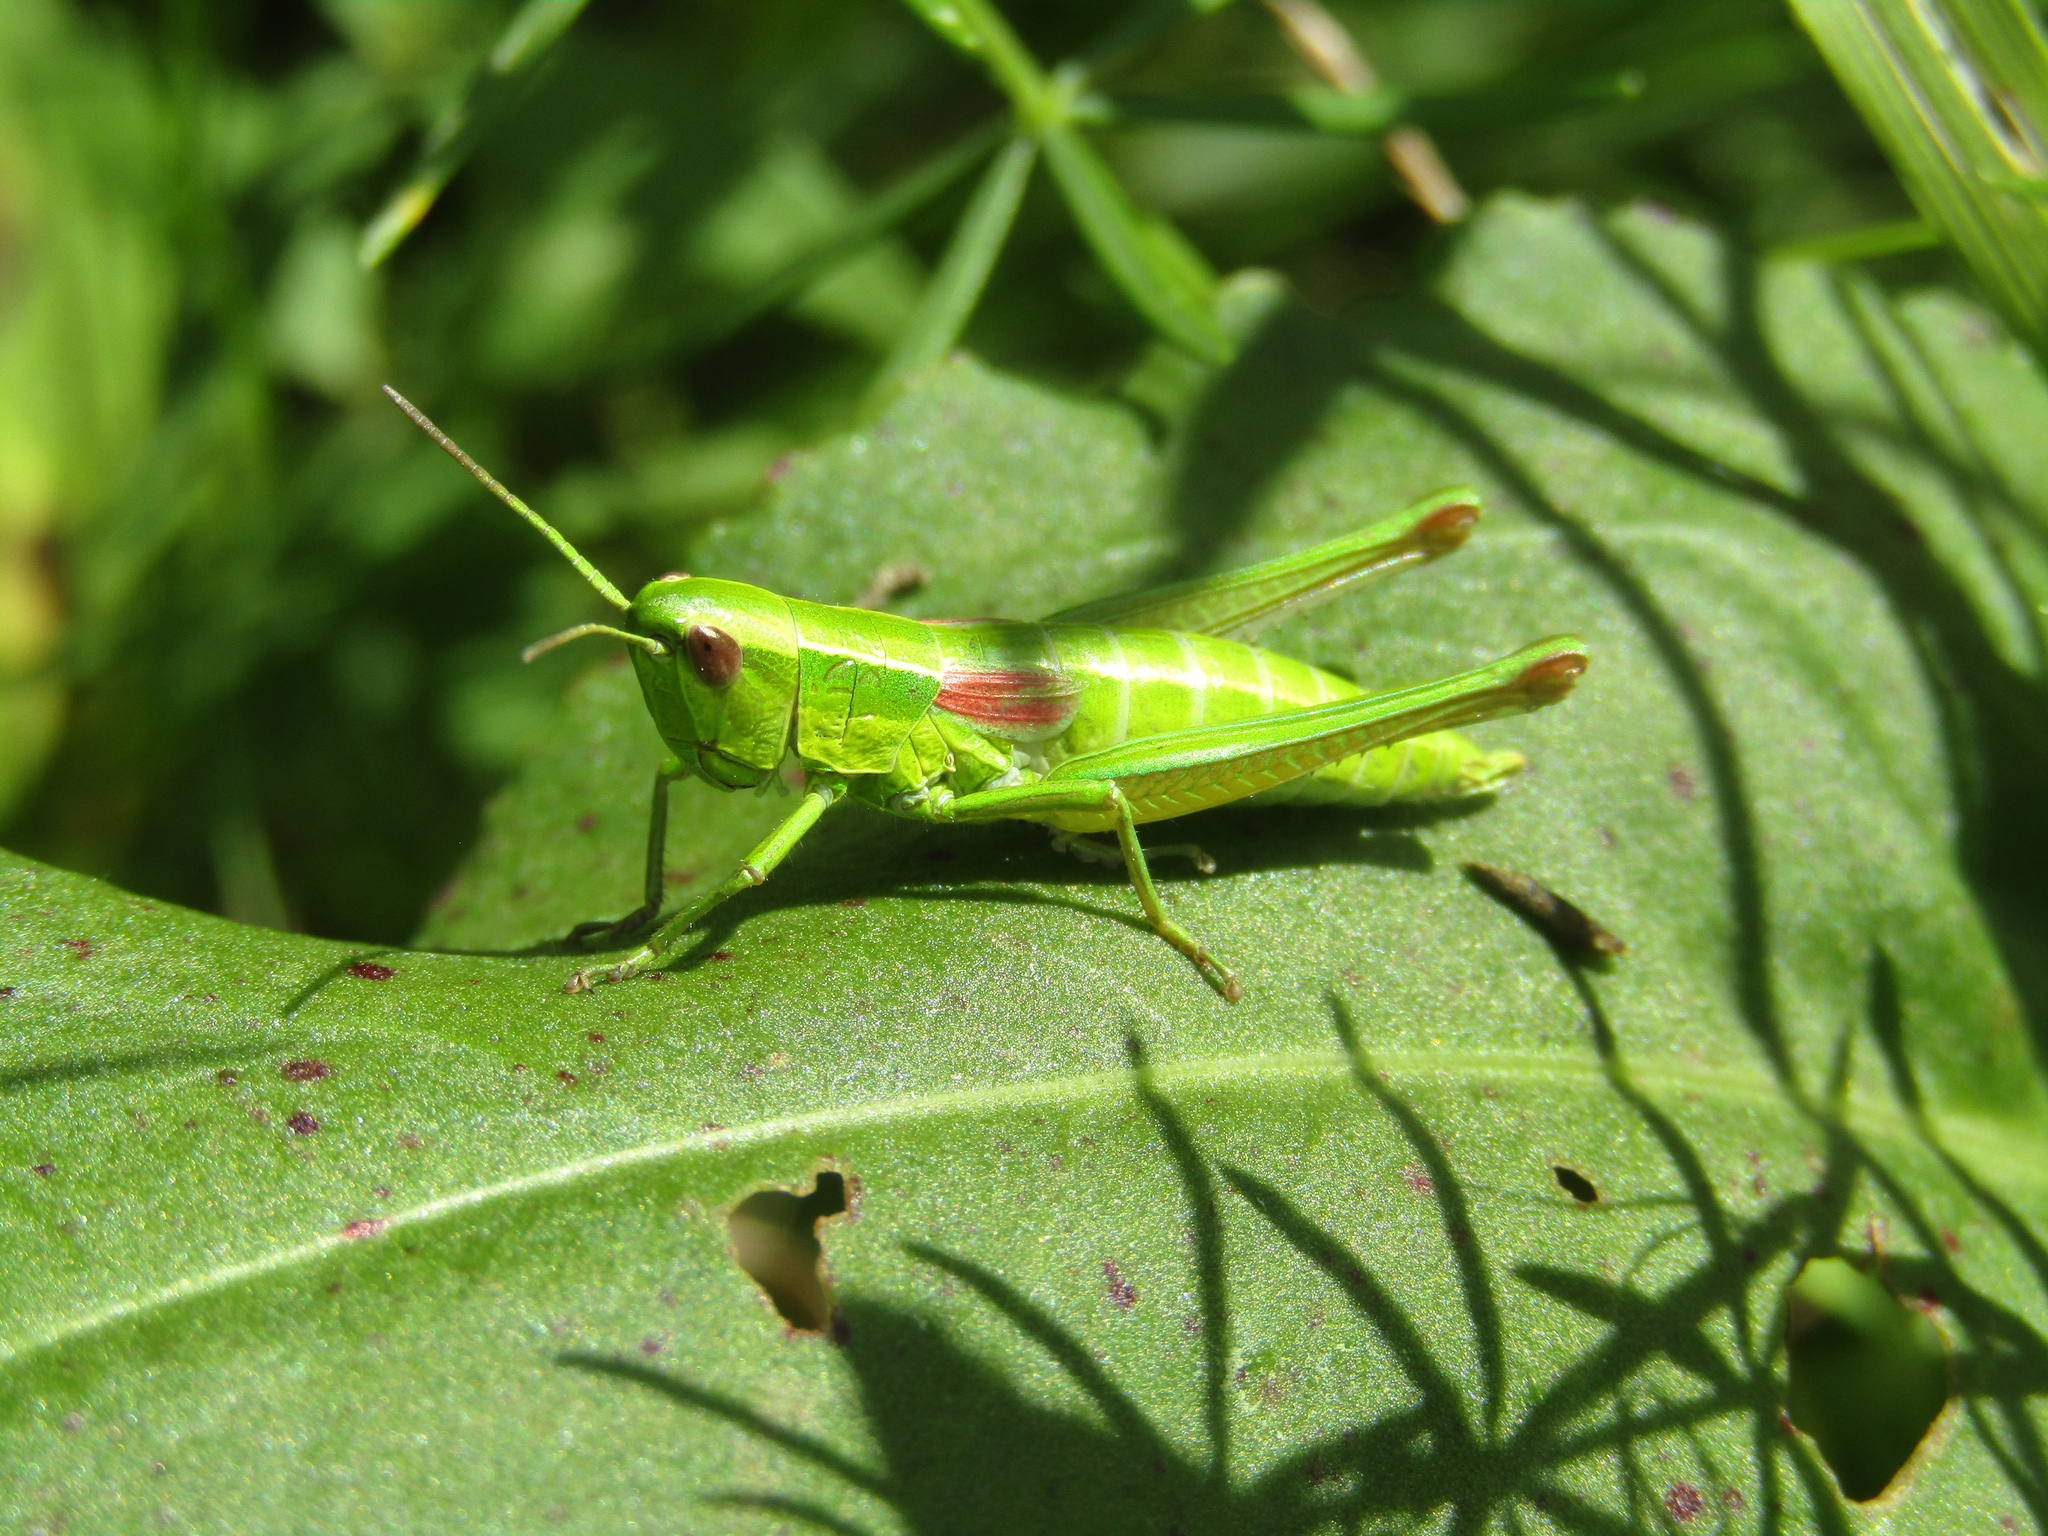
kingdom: Animalia
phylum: Arthropoda
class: Insecta
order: Orthoptera
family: Acrididae
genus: Euthystira
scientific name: Euthystira brachyptera
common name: Small gold grasshopper
